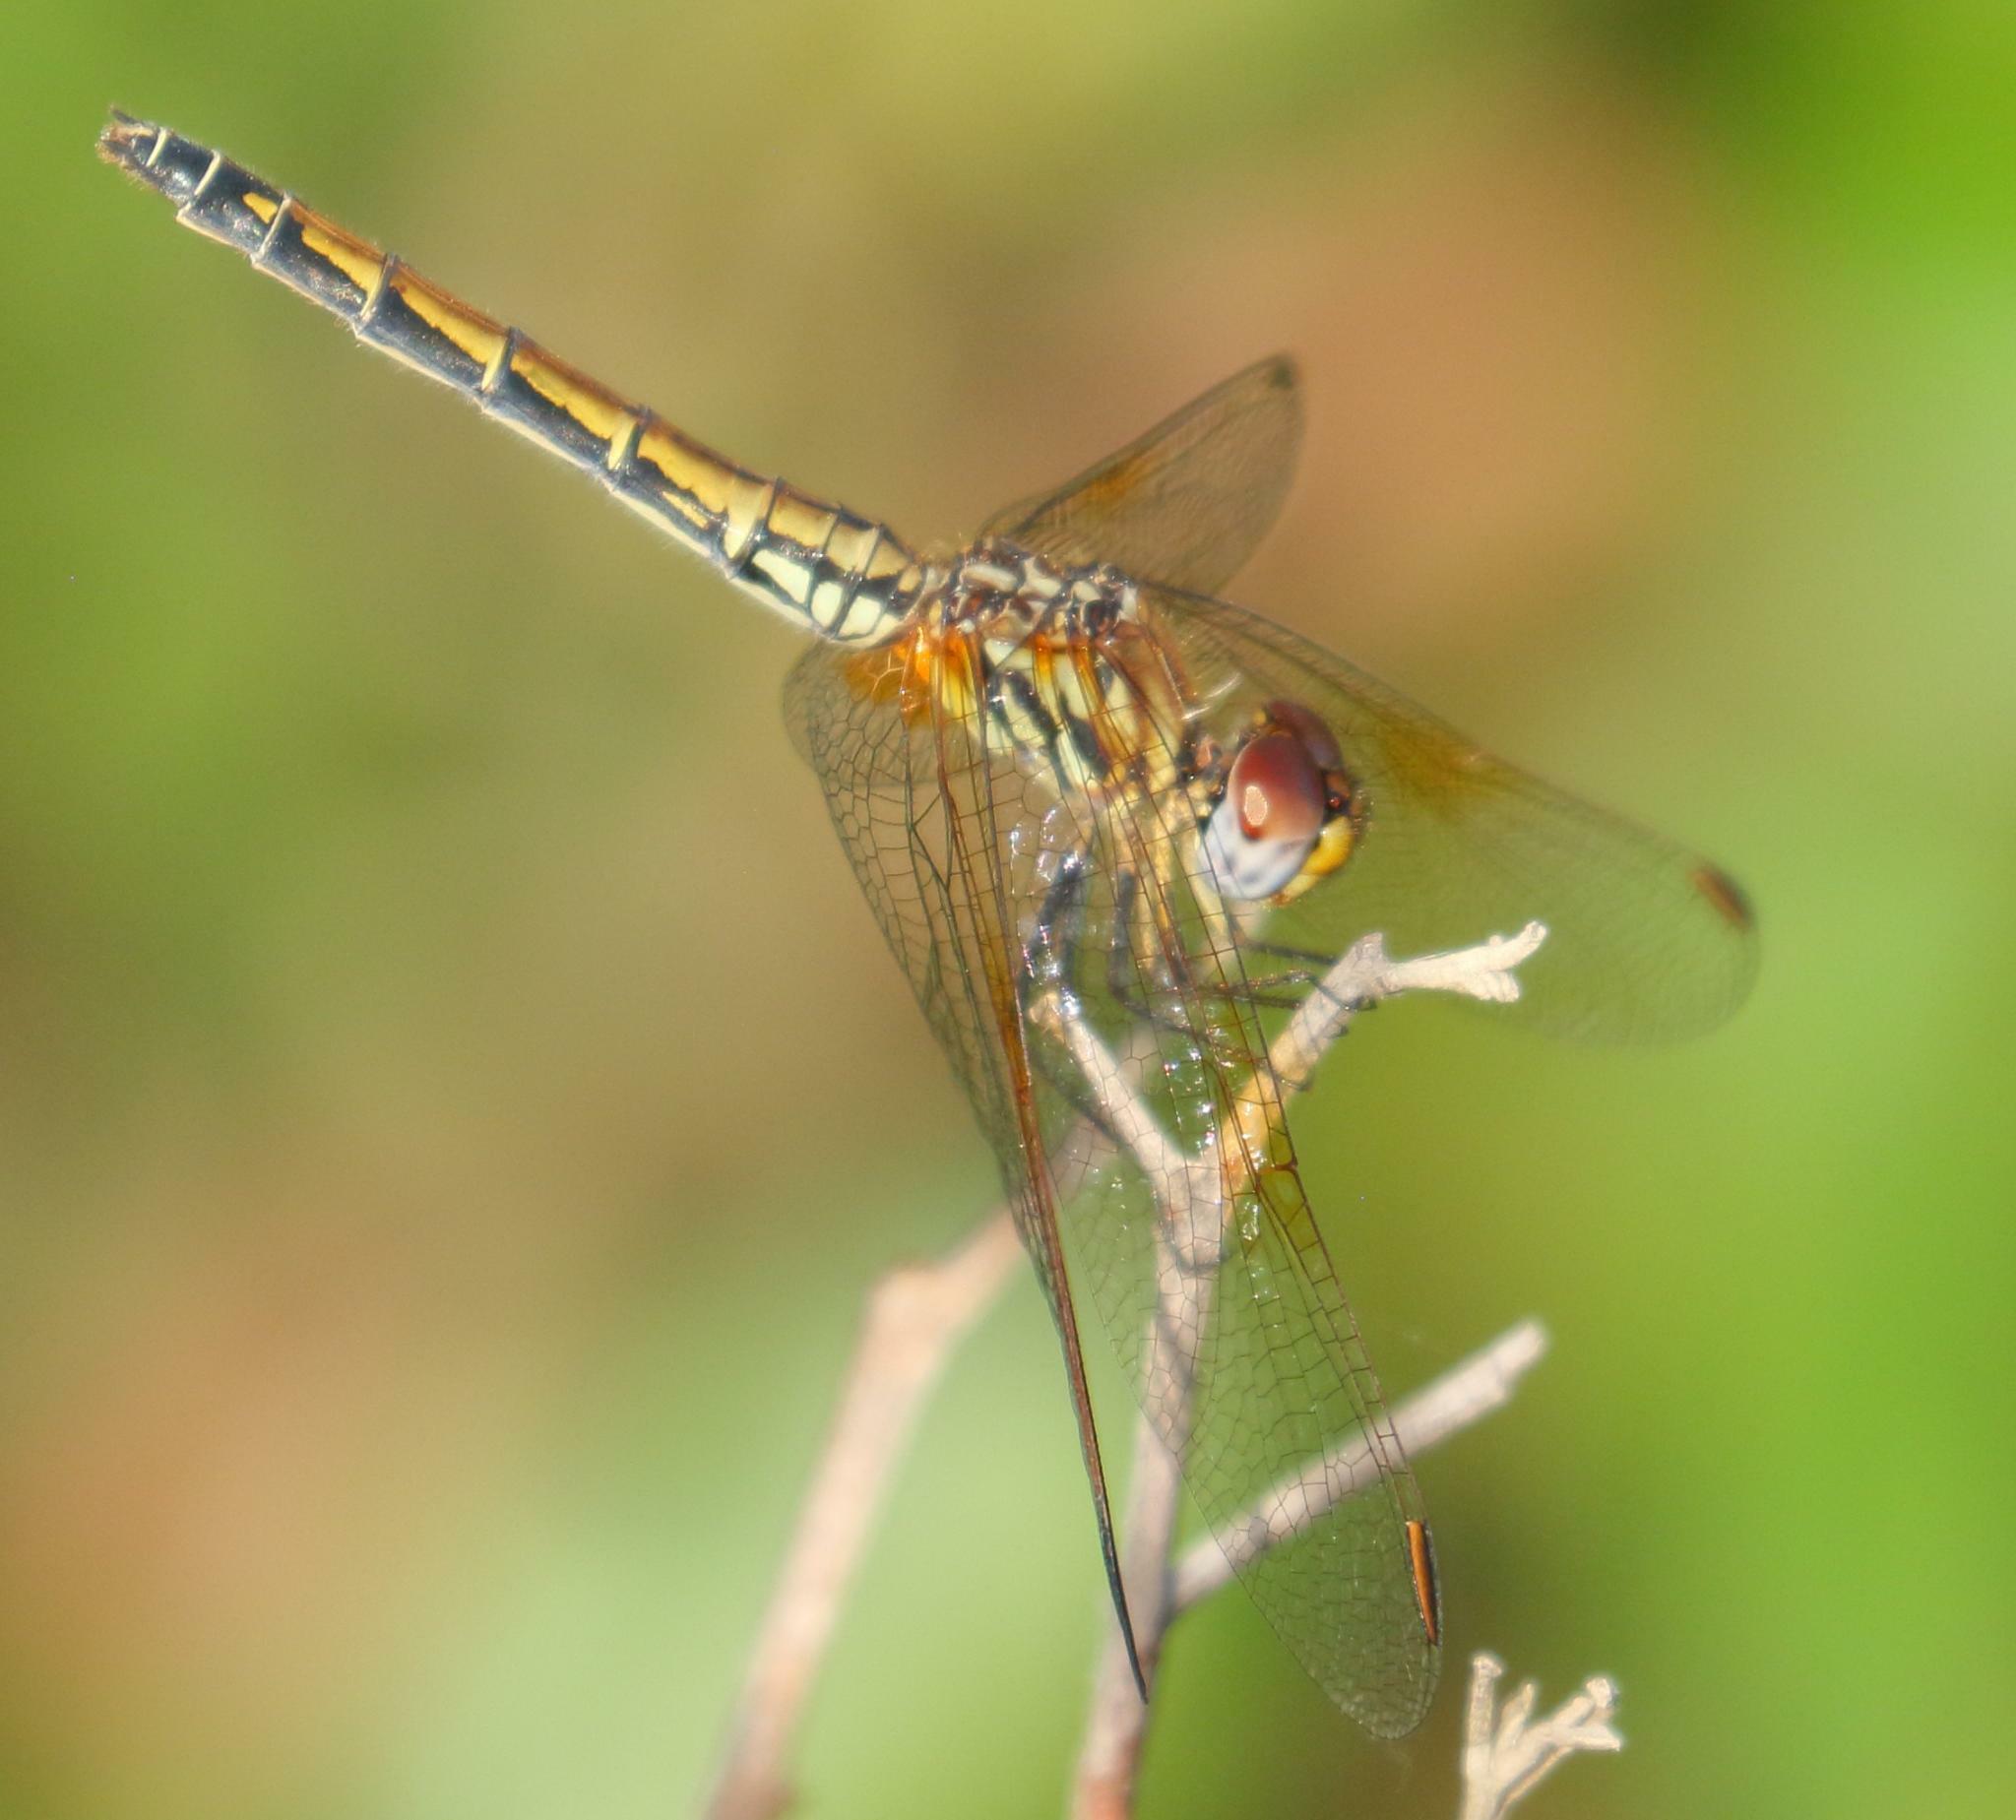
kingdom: Animalia
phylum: Arthropoda
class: Insecta
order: Odonata
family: Libellulidae
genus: Trithemis
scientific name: Trithemis arteriosa
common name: Red-veined dropwing
